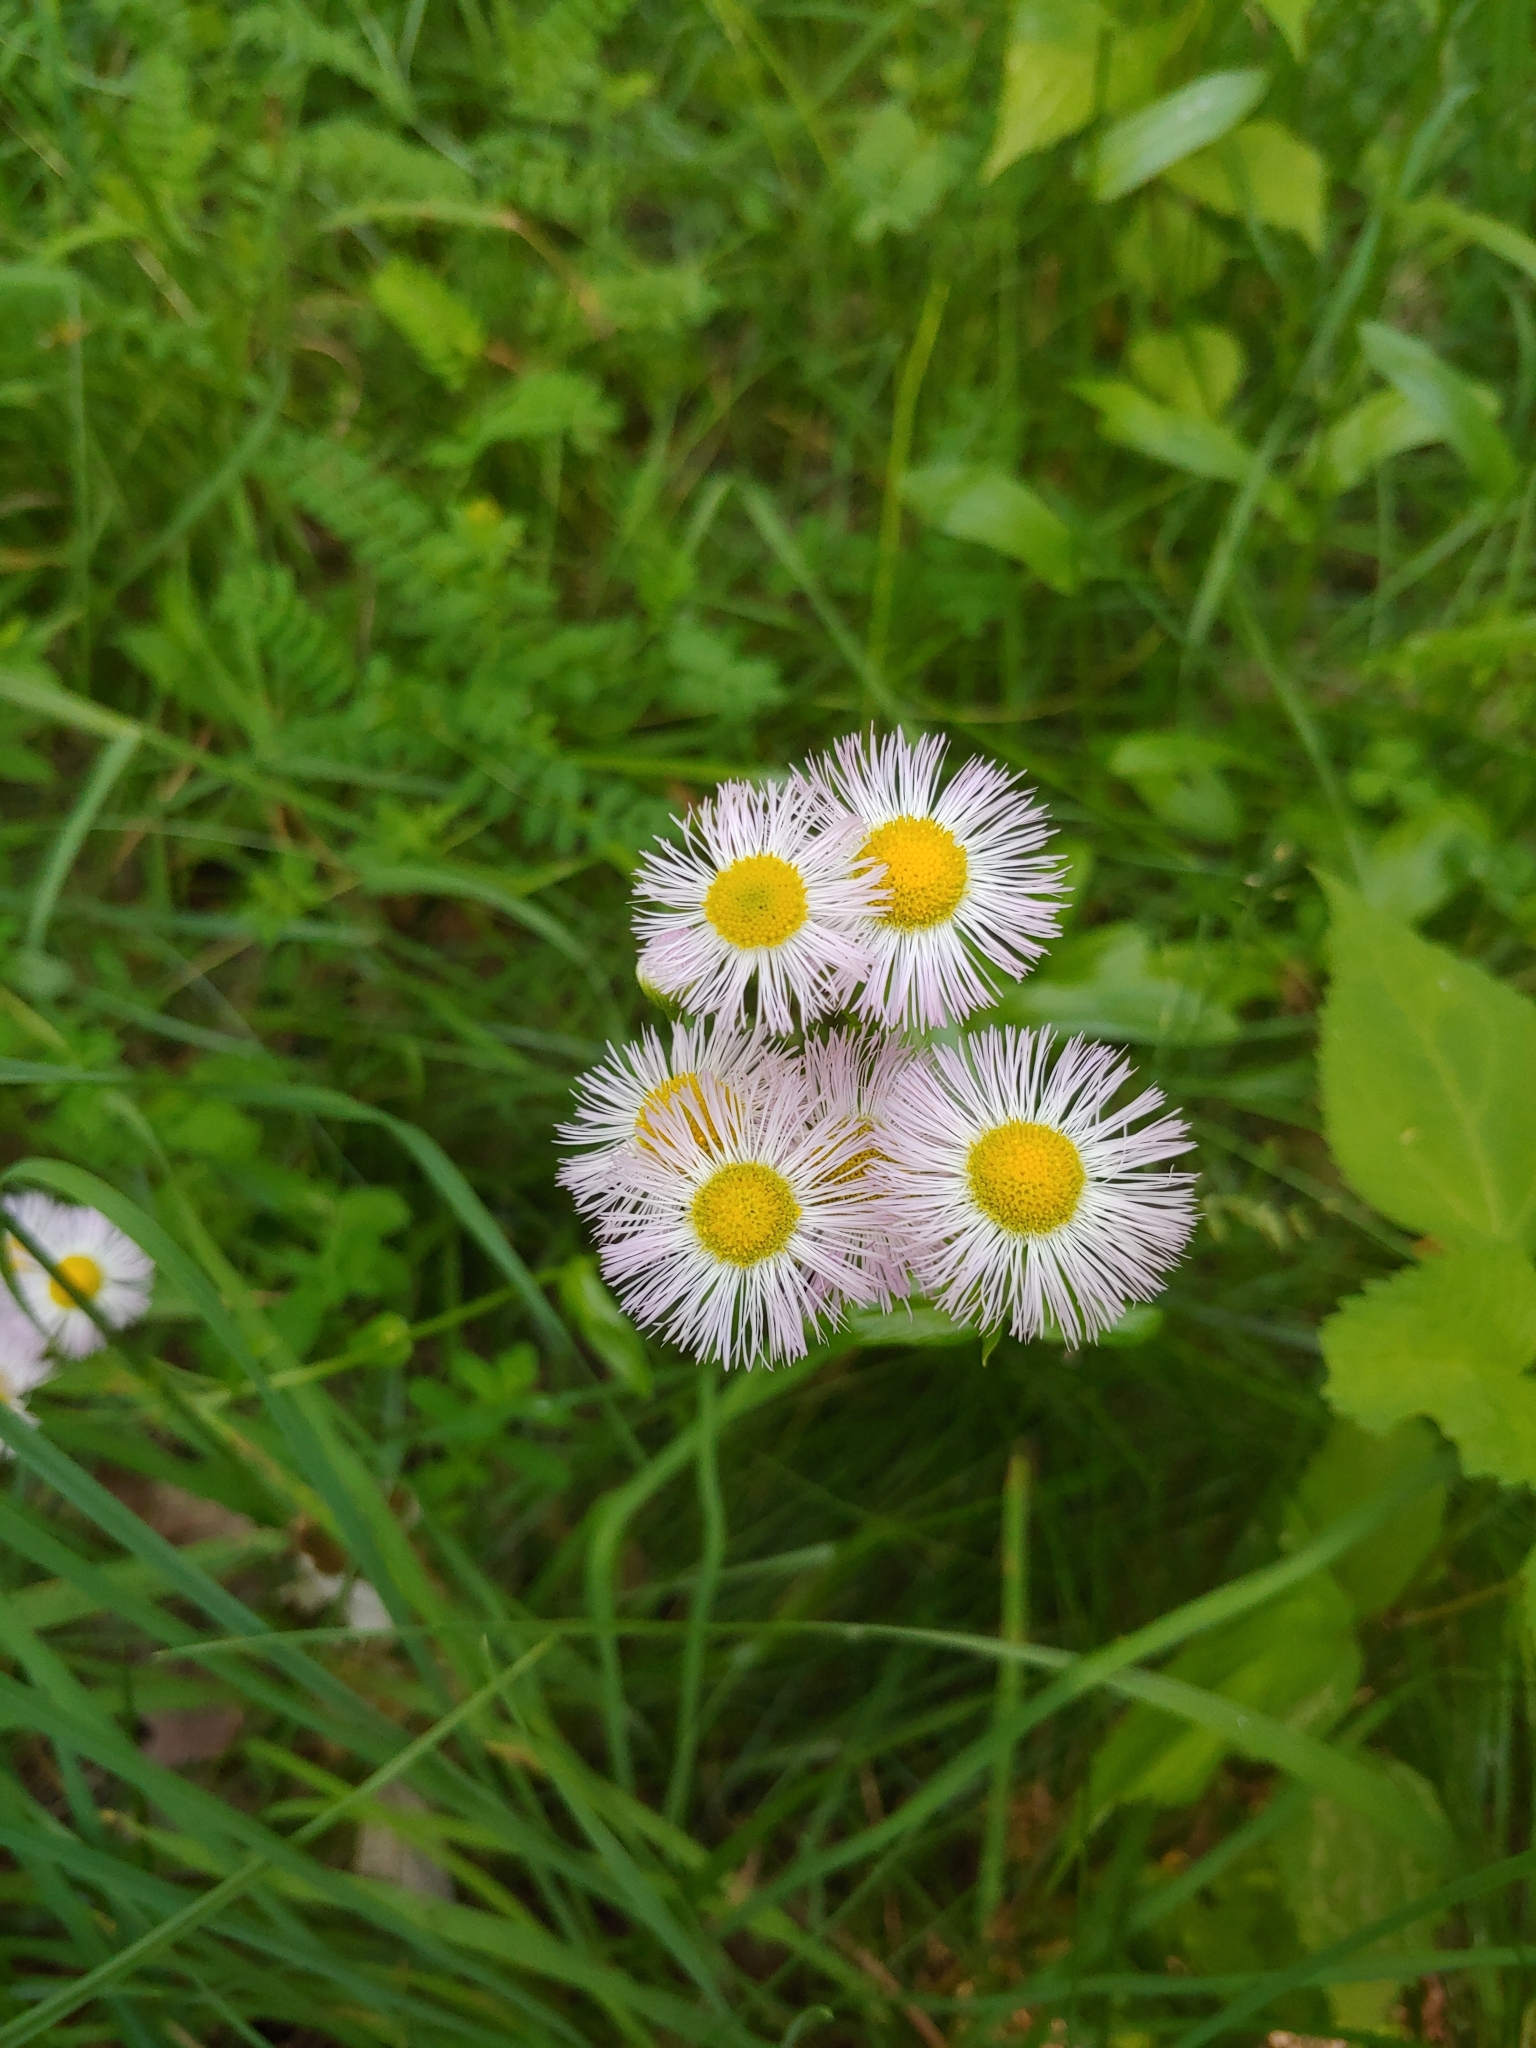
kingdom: Plantae
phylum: Tracheophyta
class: Magnoliopsida
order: Asterales
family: Asteraceae
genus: Erigeron
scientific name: Erigeron philadelphicus
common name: Robin's-plantain
